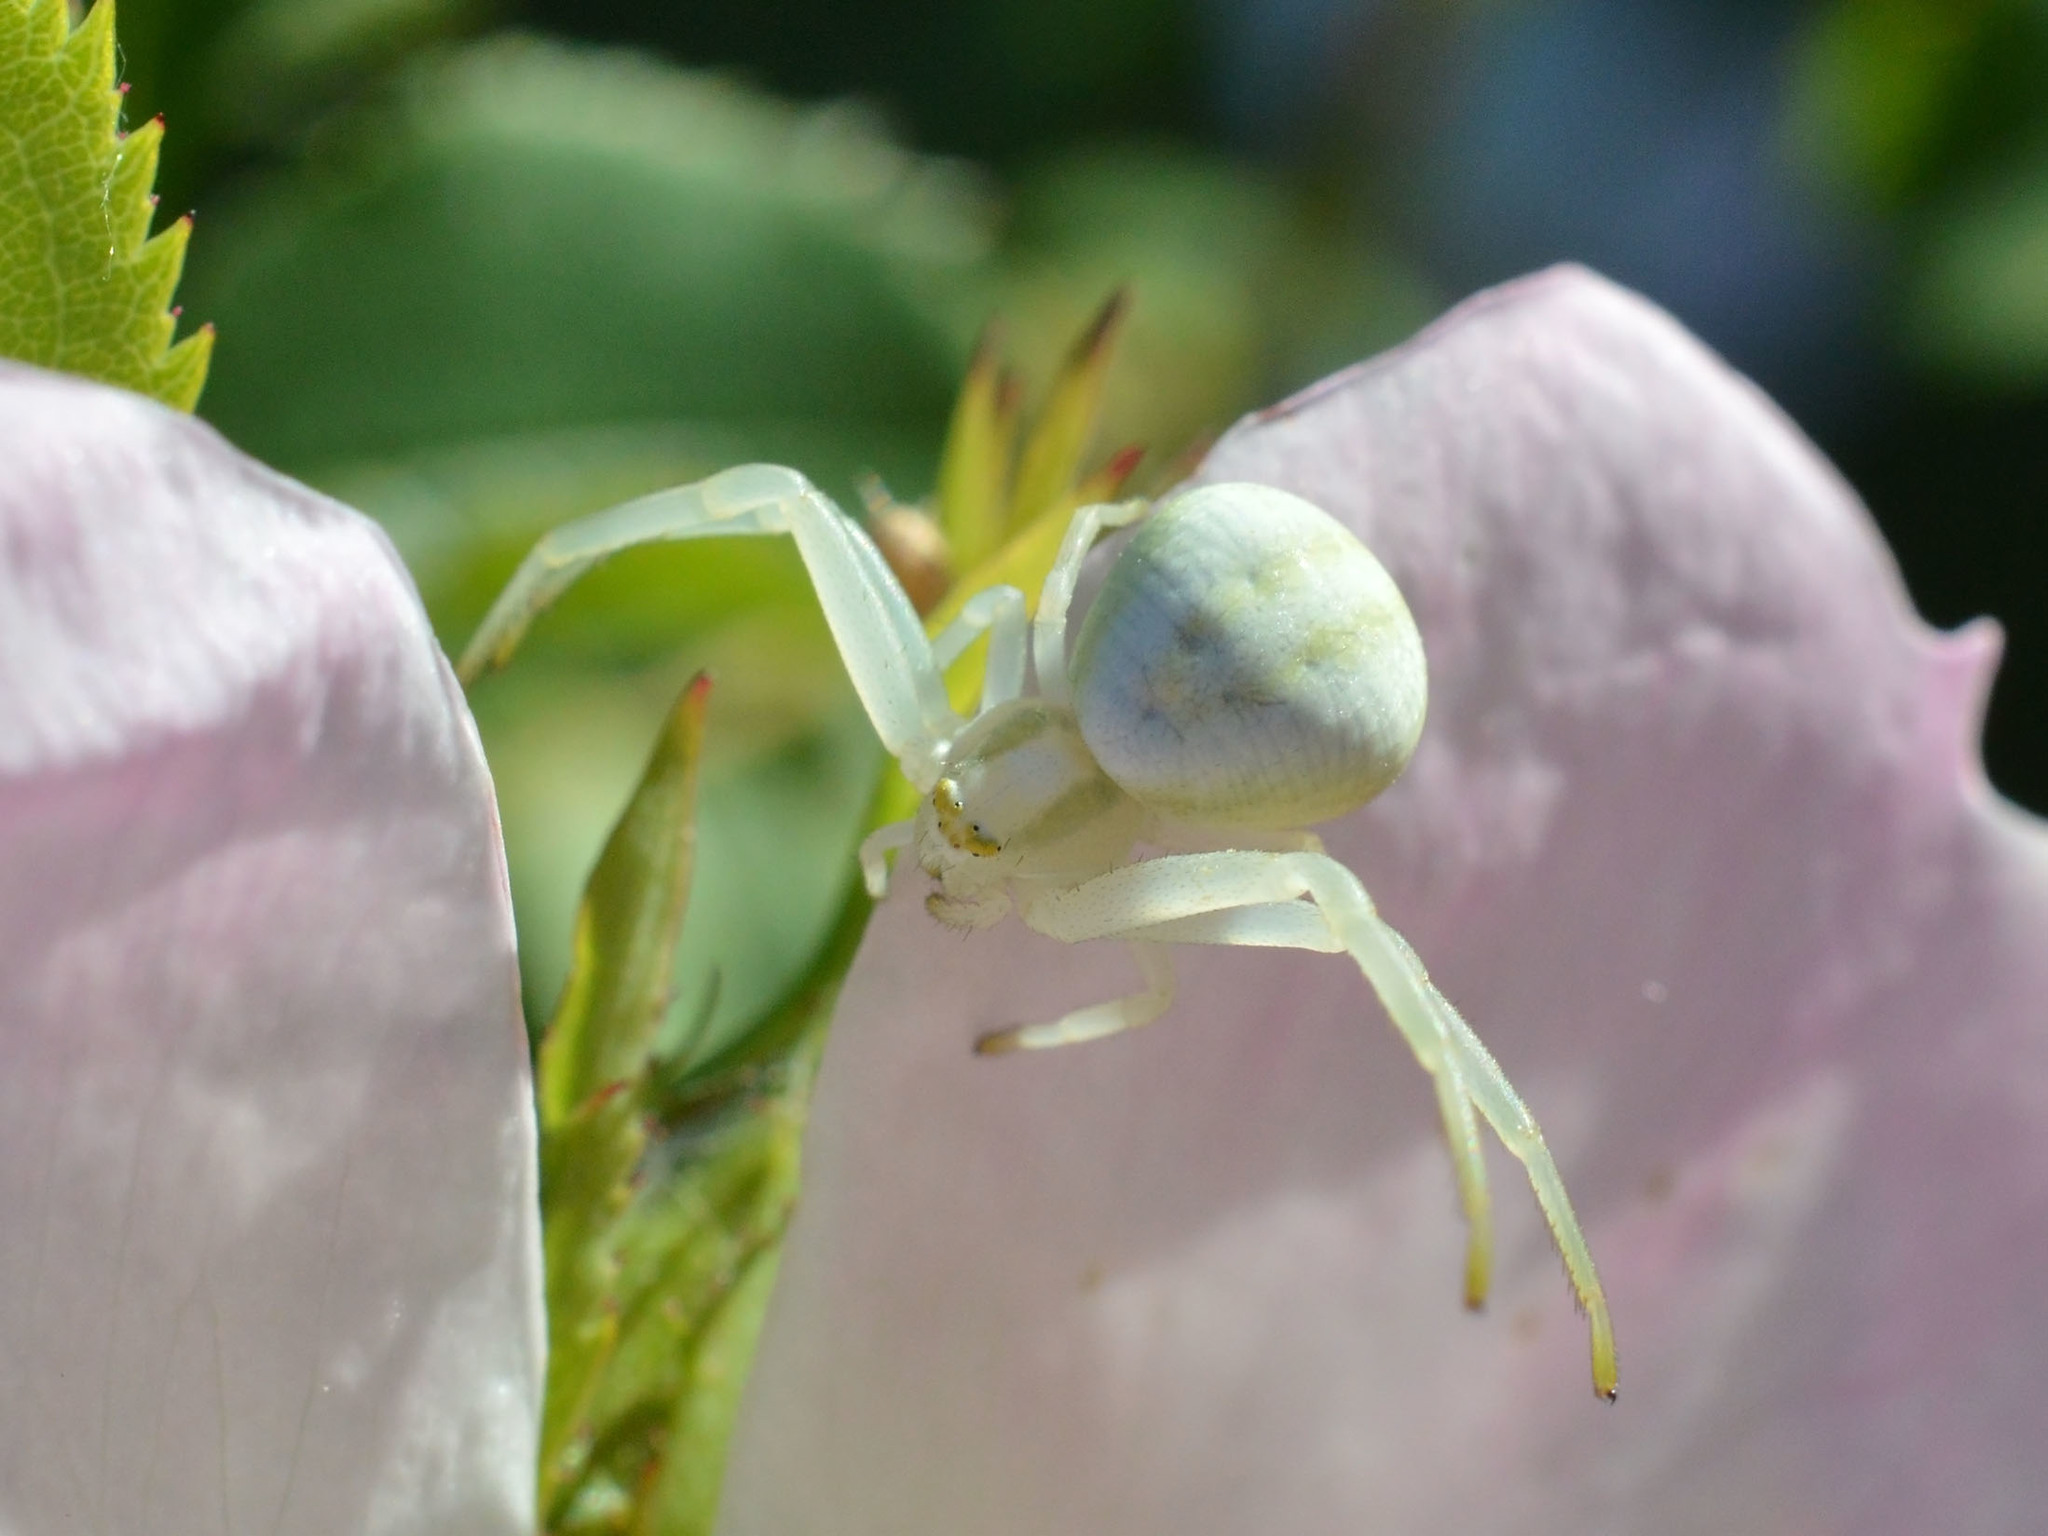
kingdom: Animalia
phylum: Arthropoda
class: Arachnida
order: Araneae
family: Thomisidae
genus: Misumena
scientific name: Misumena vatia
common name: Goldenrod crab spider
